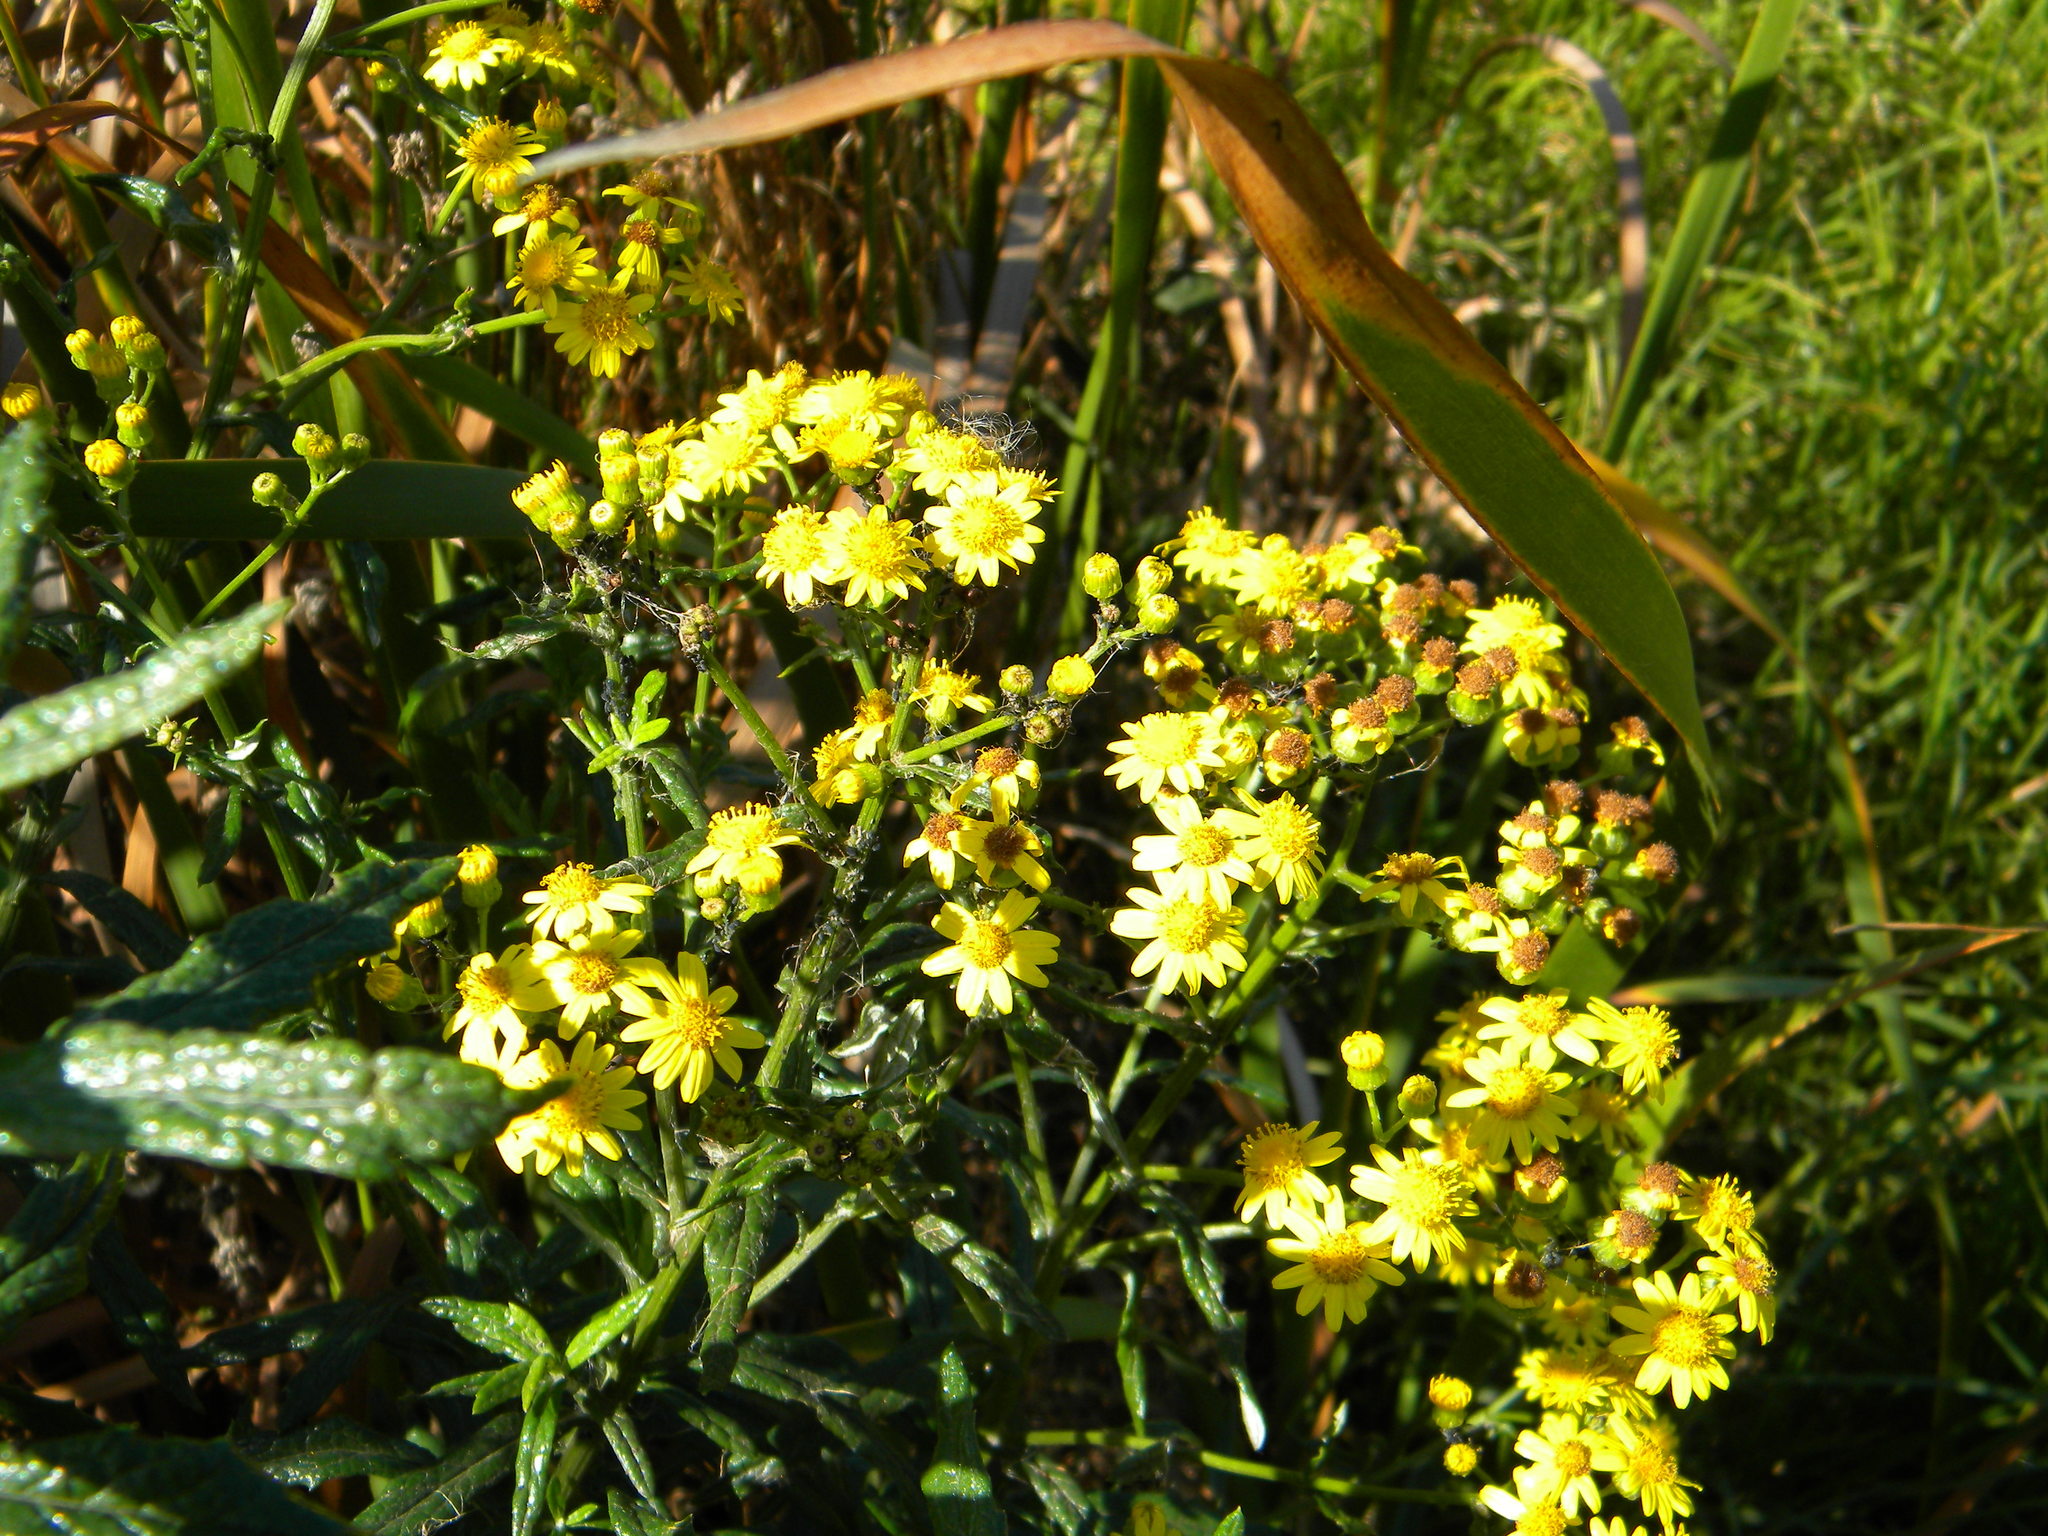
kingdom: Plantae
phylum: Tracheophyta
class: Magnoliopsida
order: Asterales
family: Asteraceae
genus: Senecio
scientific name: Senecio pterophorus
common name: Shoddy ragwort
